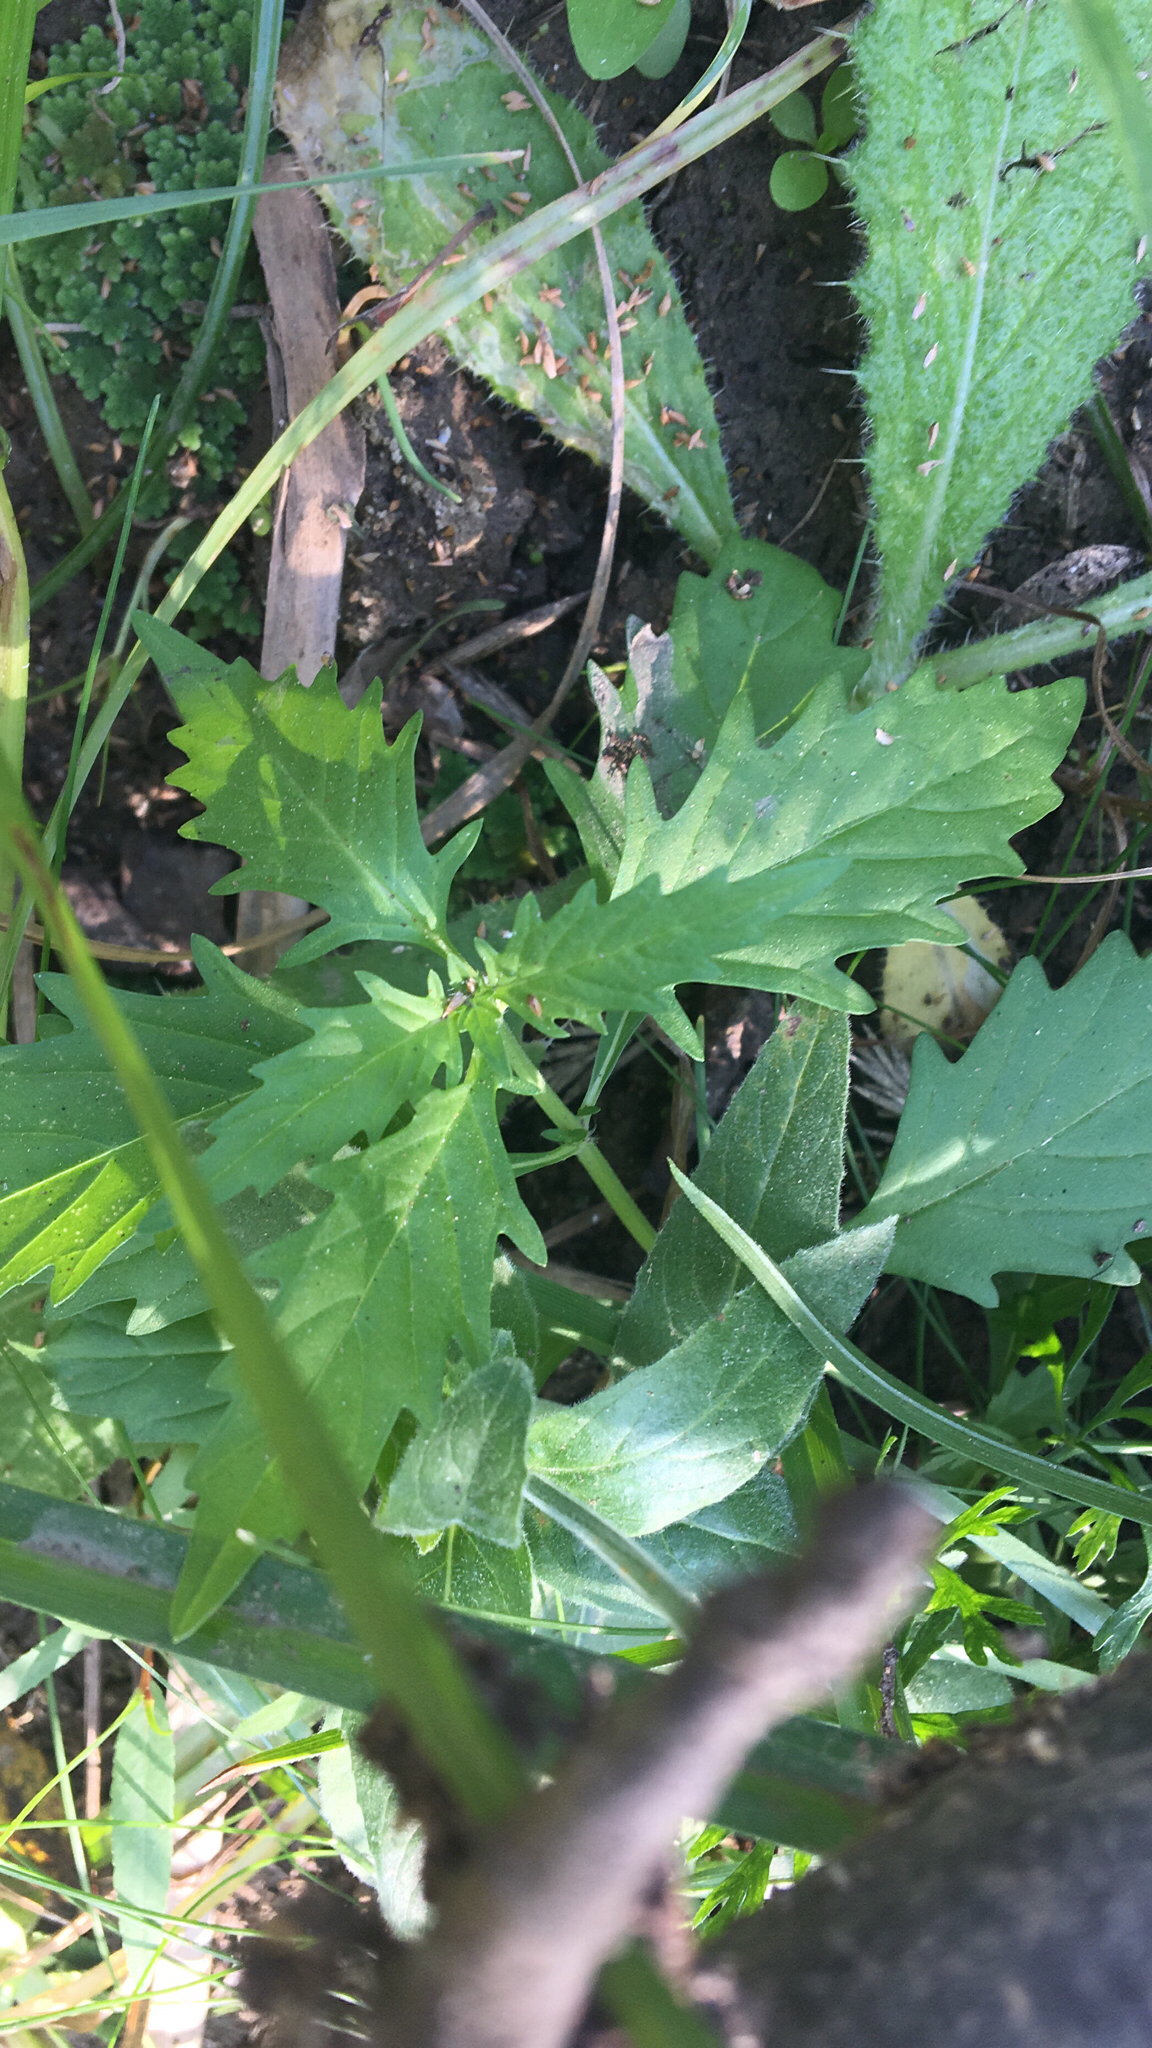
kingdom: Plantae
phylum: Tracheophyta
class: Magnoliopsida
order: Lamiales
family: Lamiaceae
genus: Lycopus
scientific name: Lycopus americanus
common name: American bugleweed
